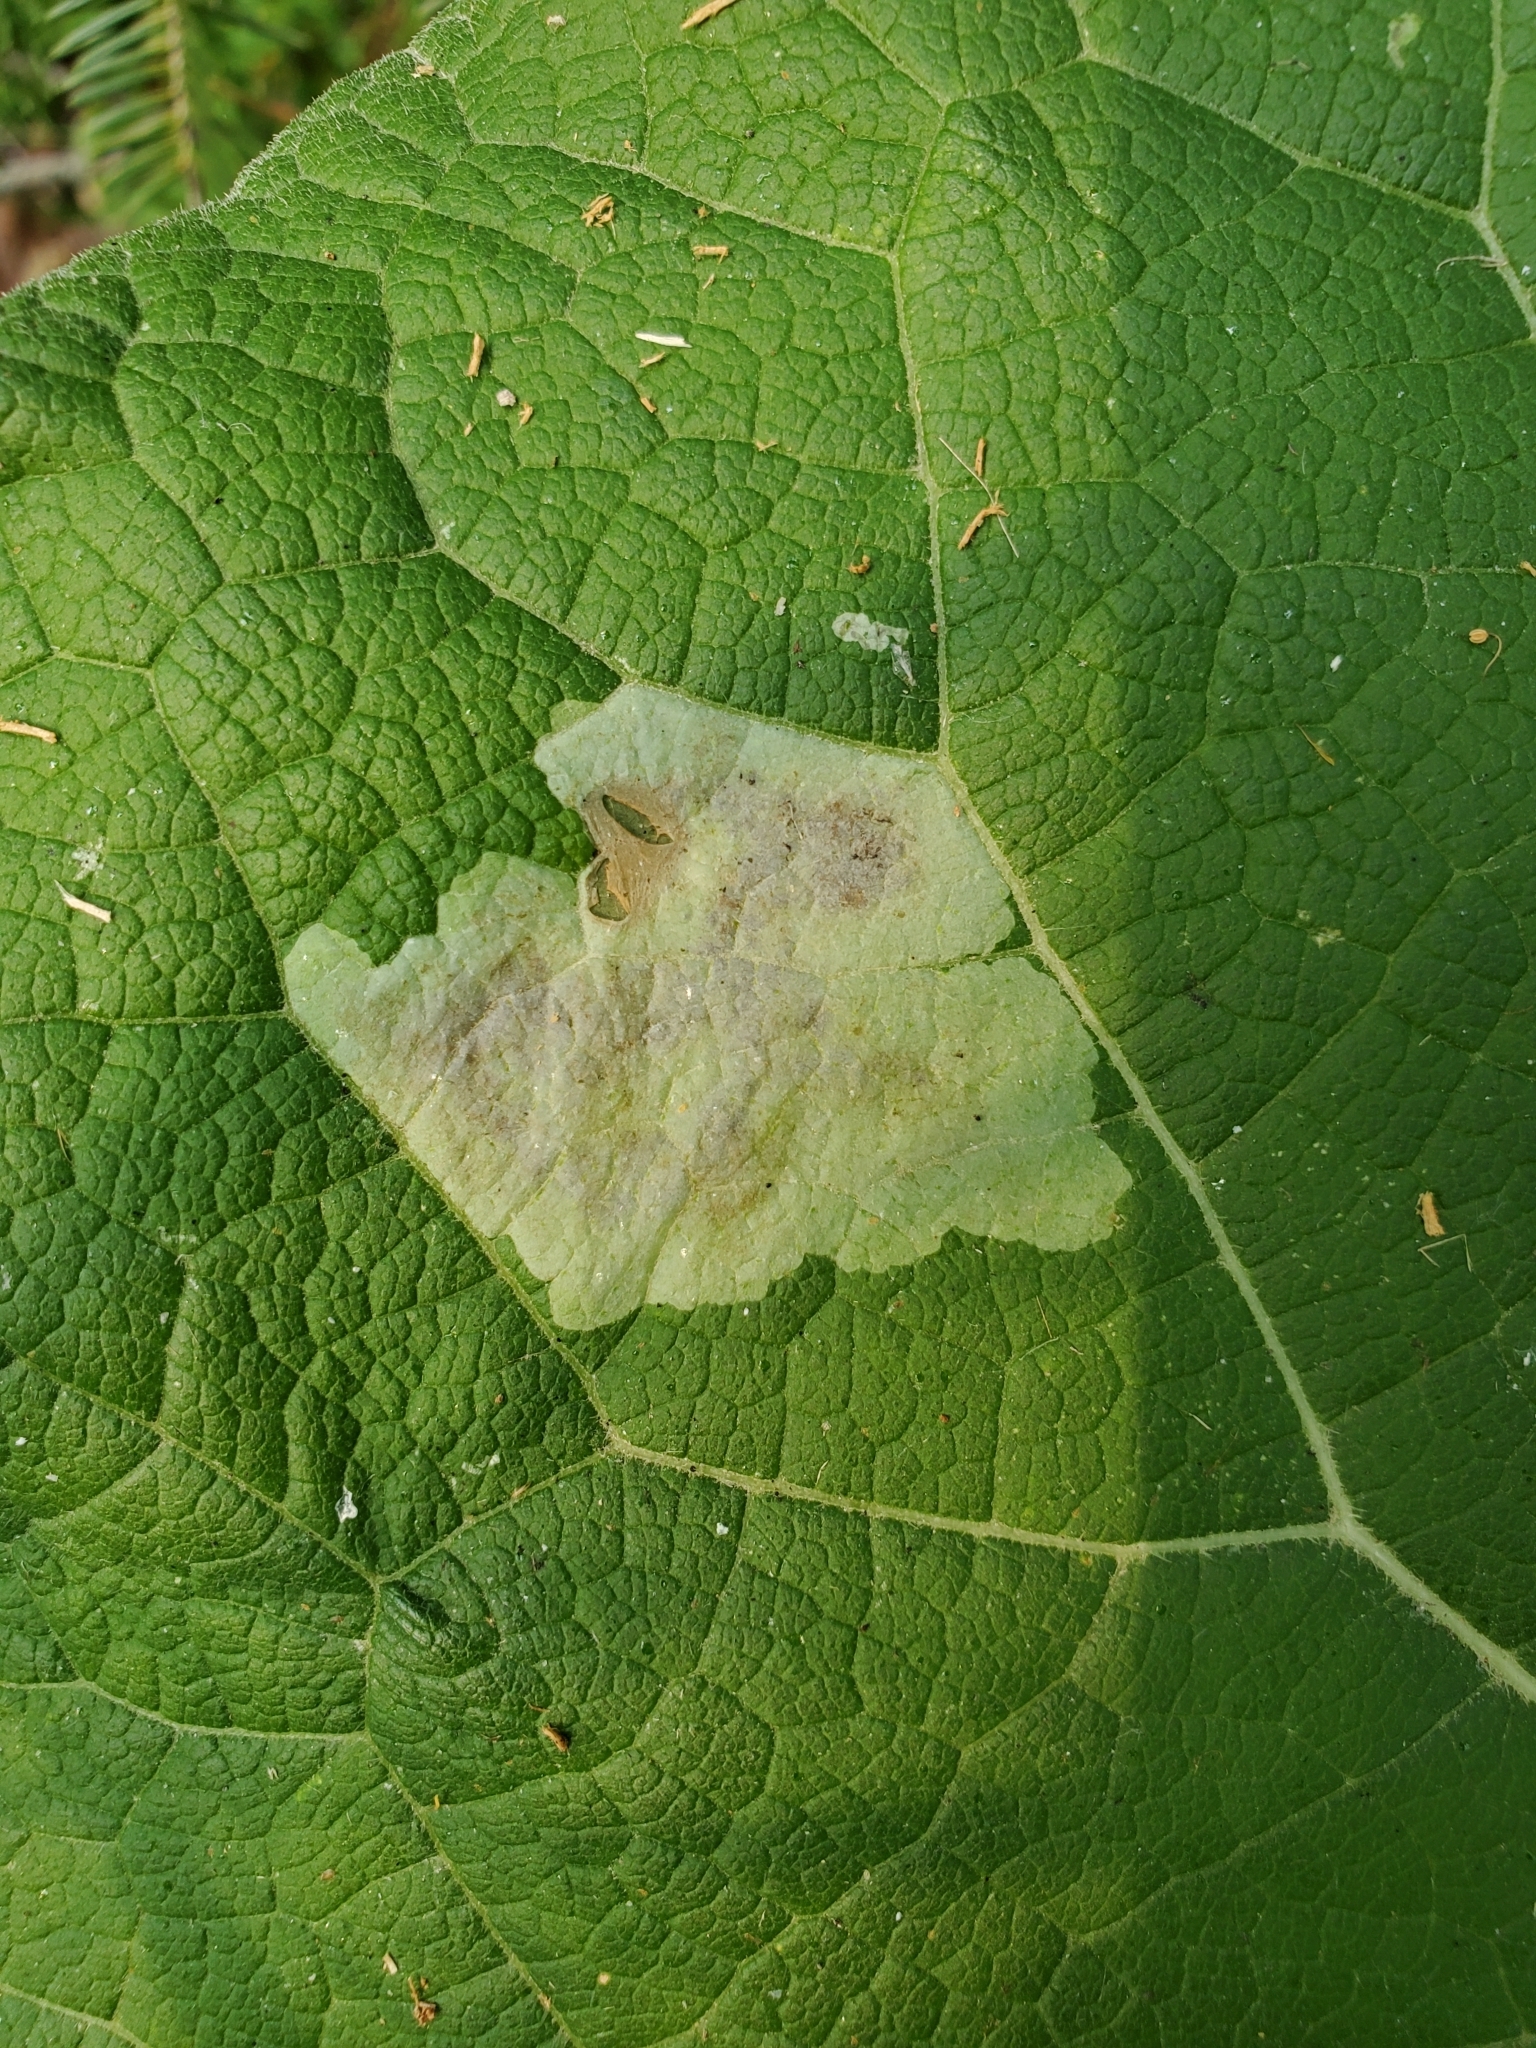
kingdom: Animalia
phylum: Arthropoda
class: Insecta
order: Diptera
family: Agromyzidae
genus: Calycomyza
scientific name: Calycomyza flavinotum
